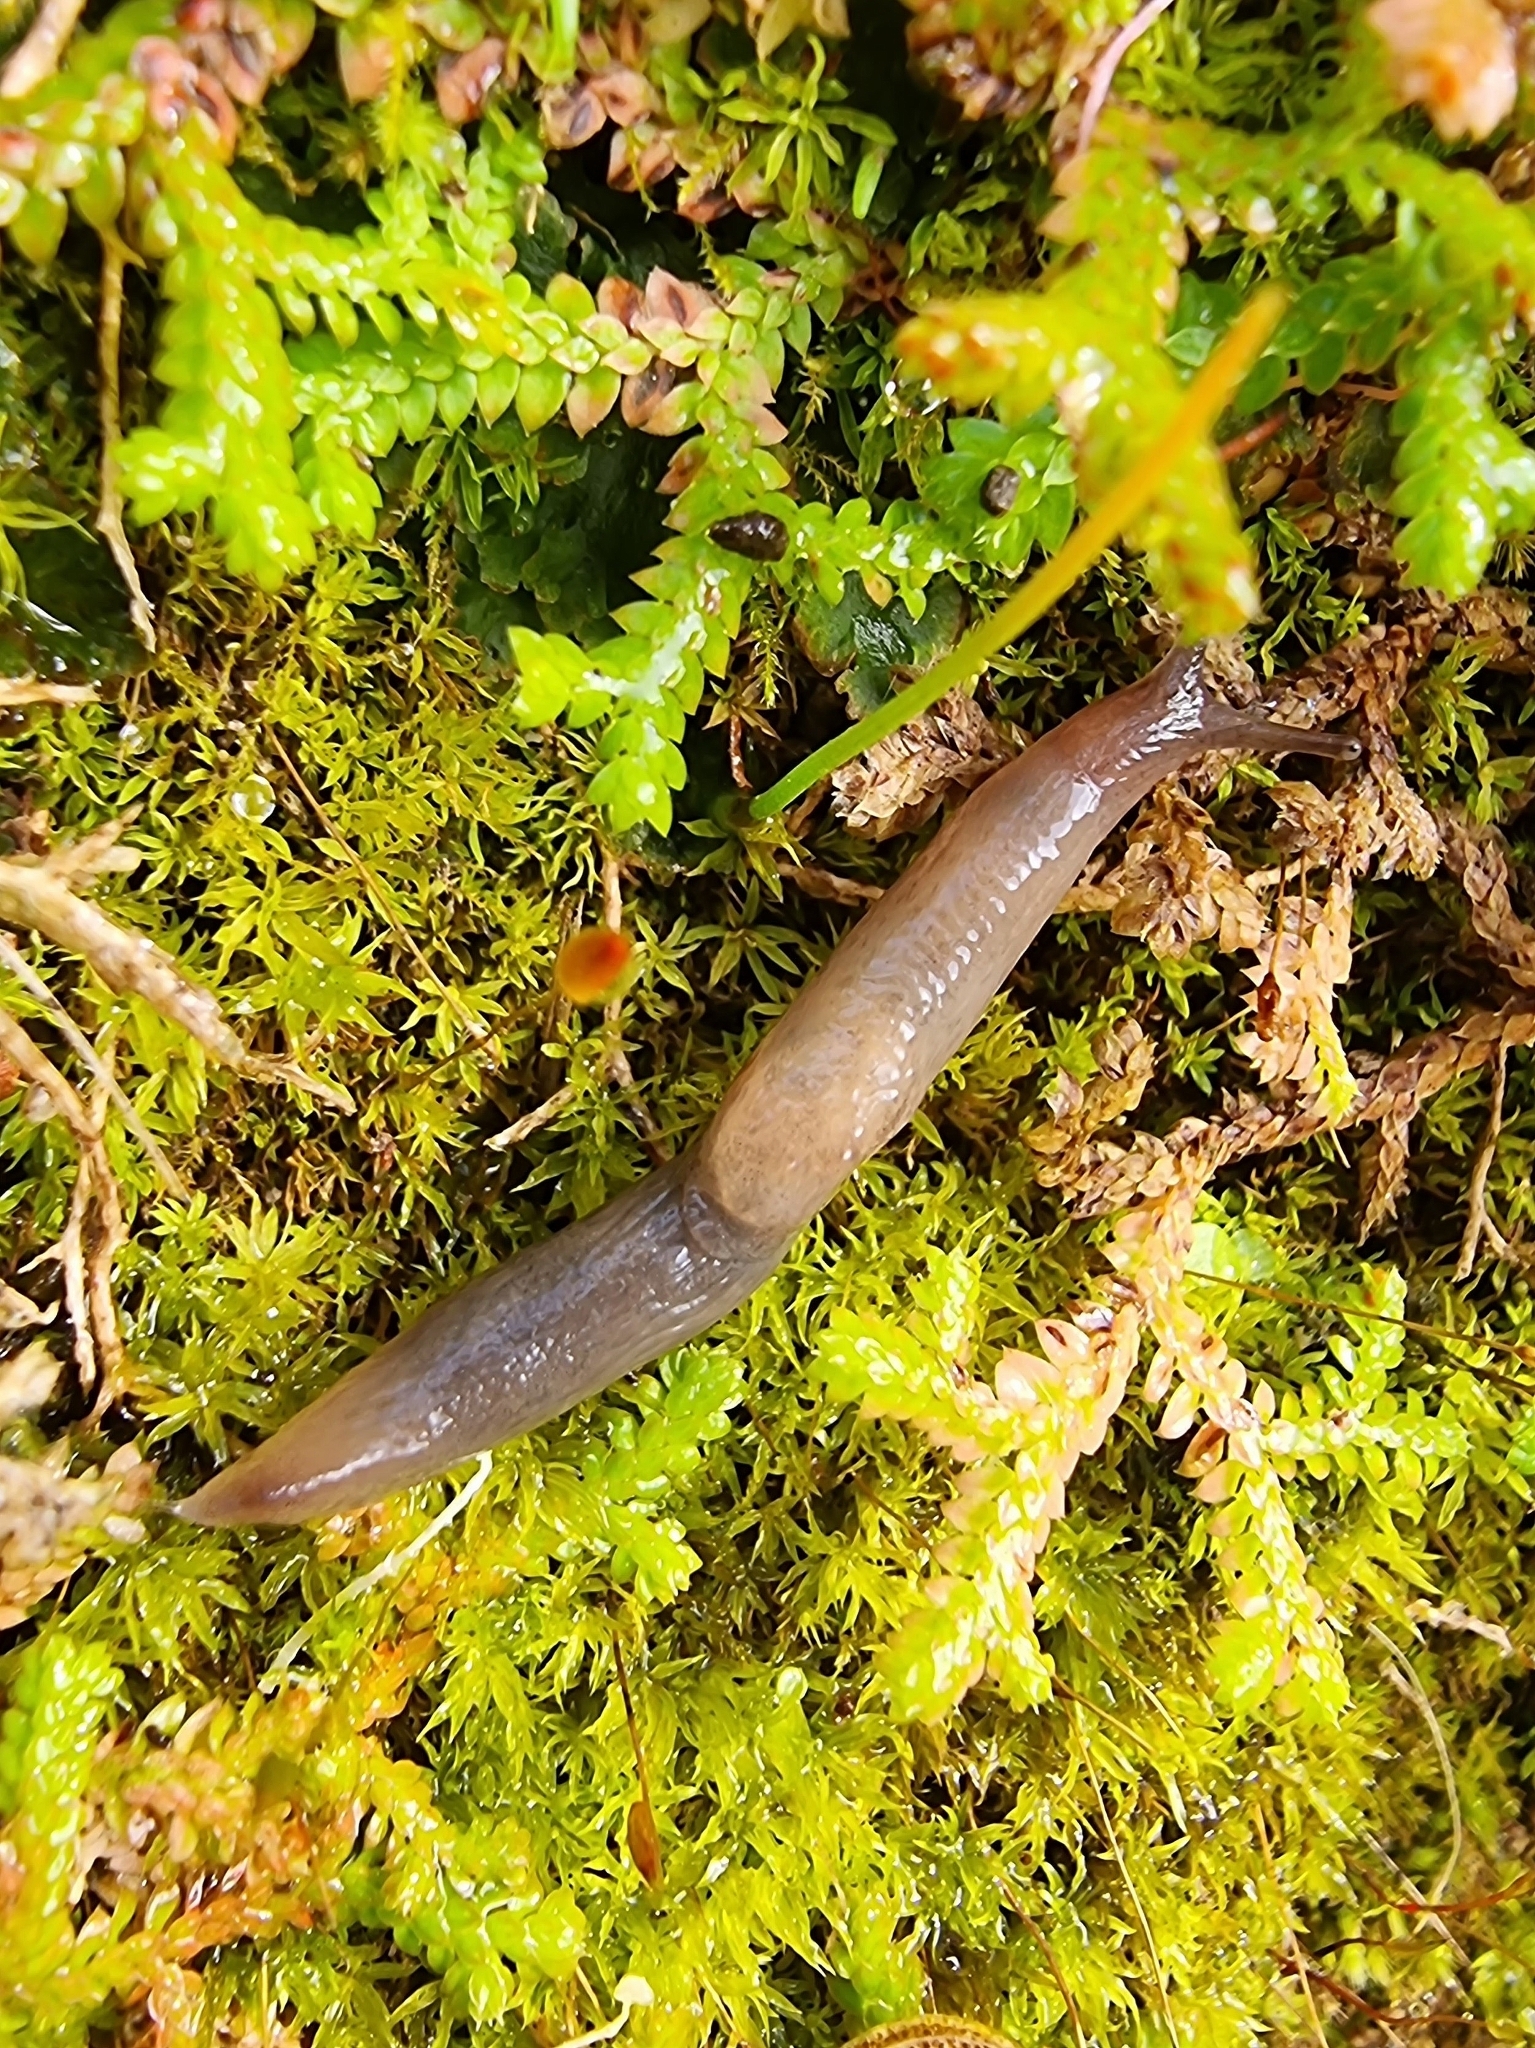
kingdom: Animalia
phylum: Mollusca
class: Gastropoda
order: Stylommatophora
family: Agriolimacidae
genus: Deroceras
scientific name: Deroceras lombricoides
